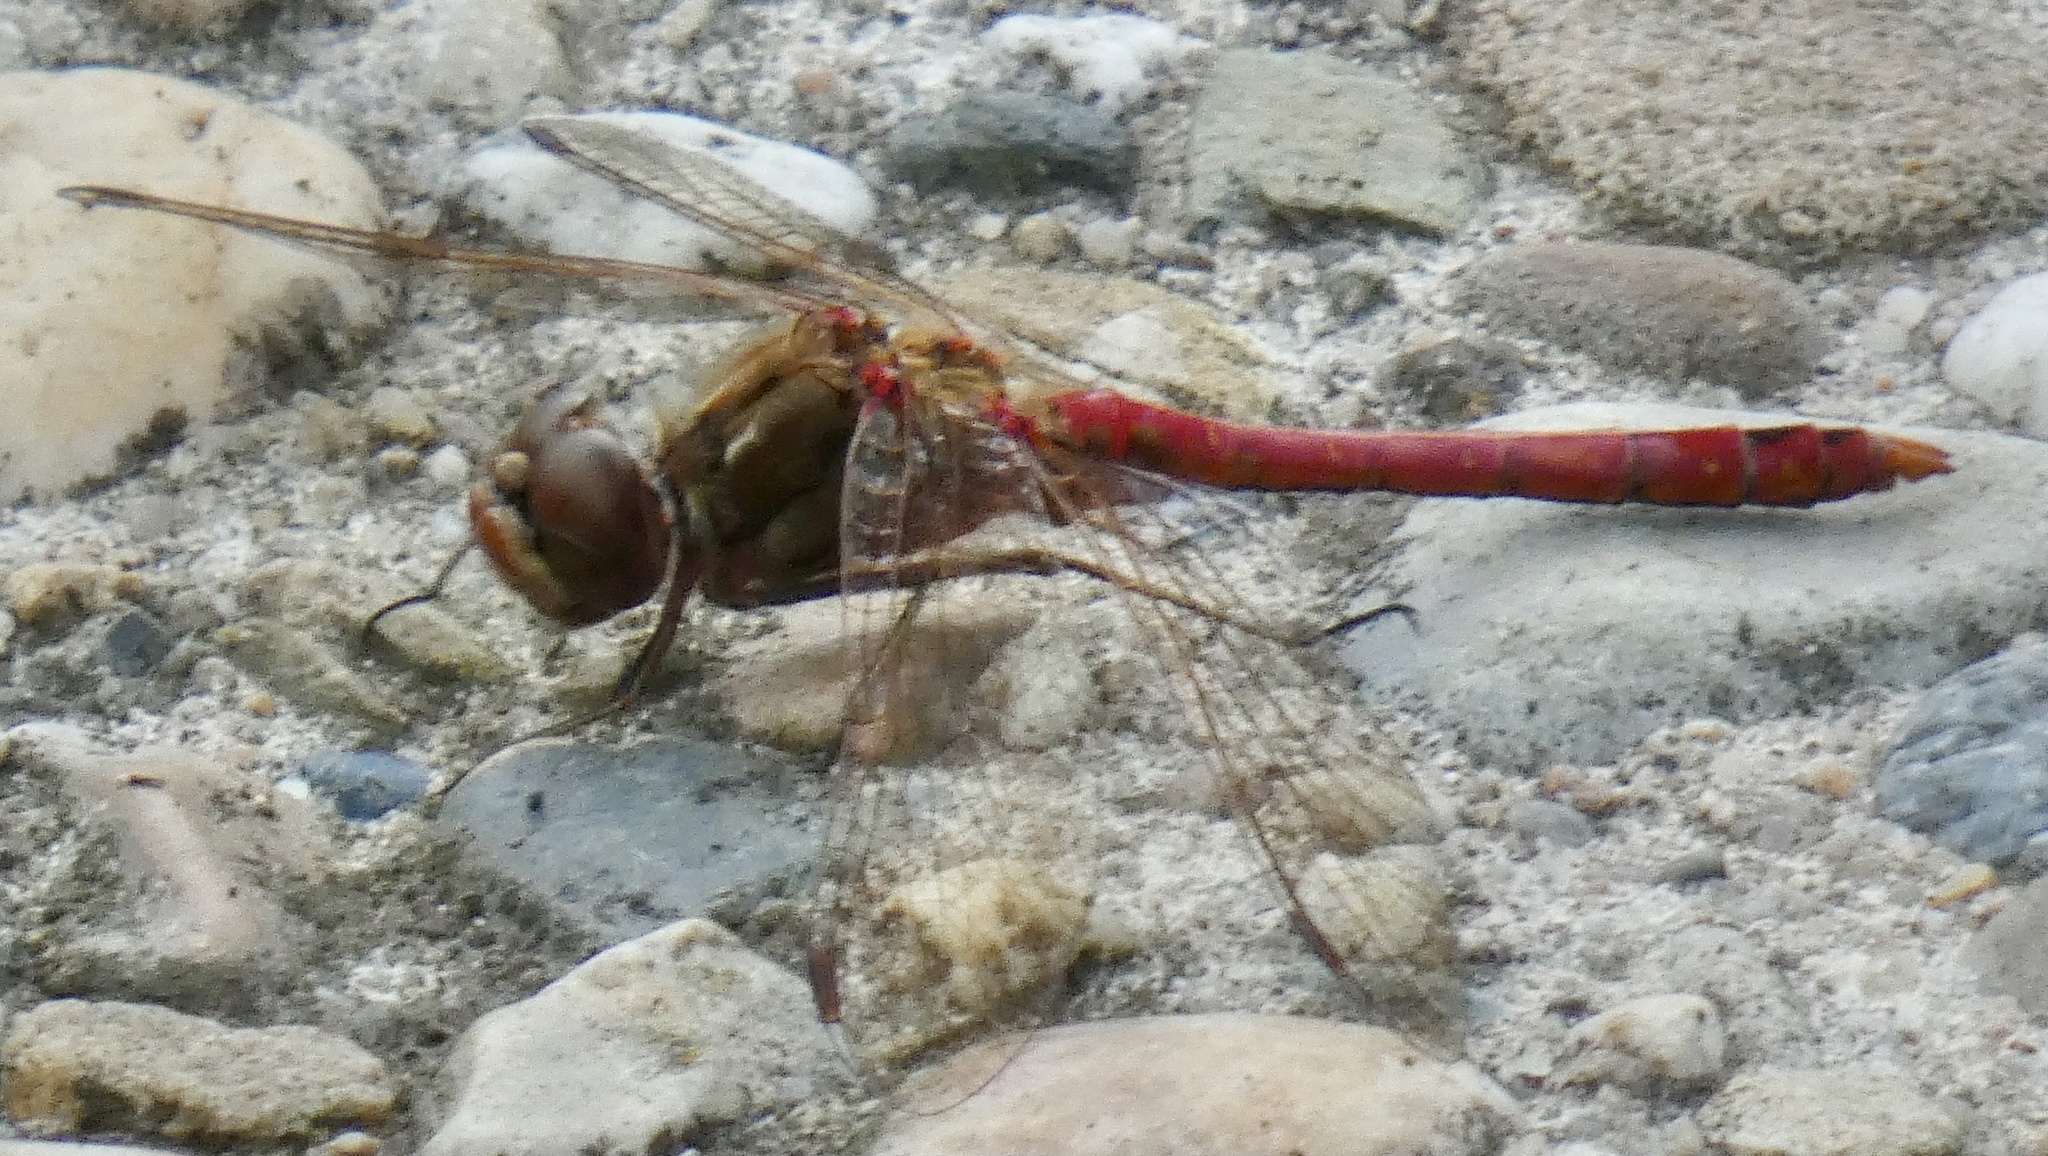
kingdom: Animalia
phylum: Arthropoda
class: Insecta
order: Odonata
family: Libellulidae
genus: Sympetrum
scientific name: Sympetrum vulgatum
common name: Vagrant darter
